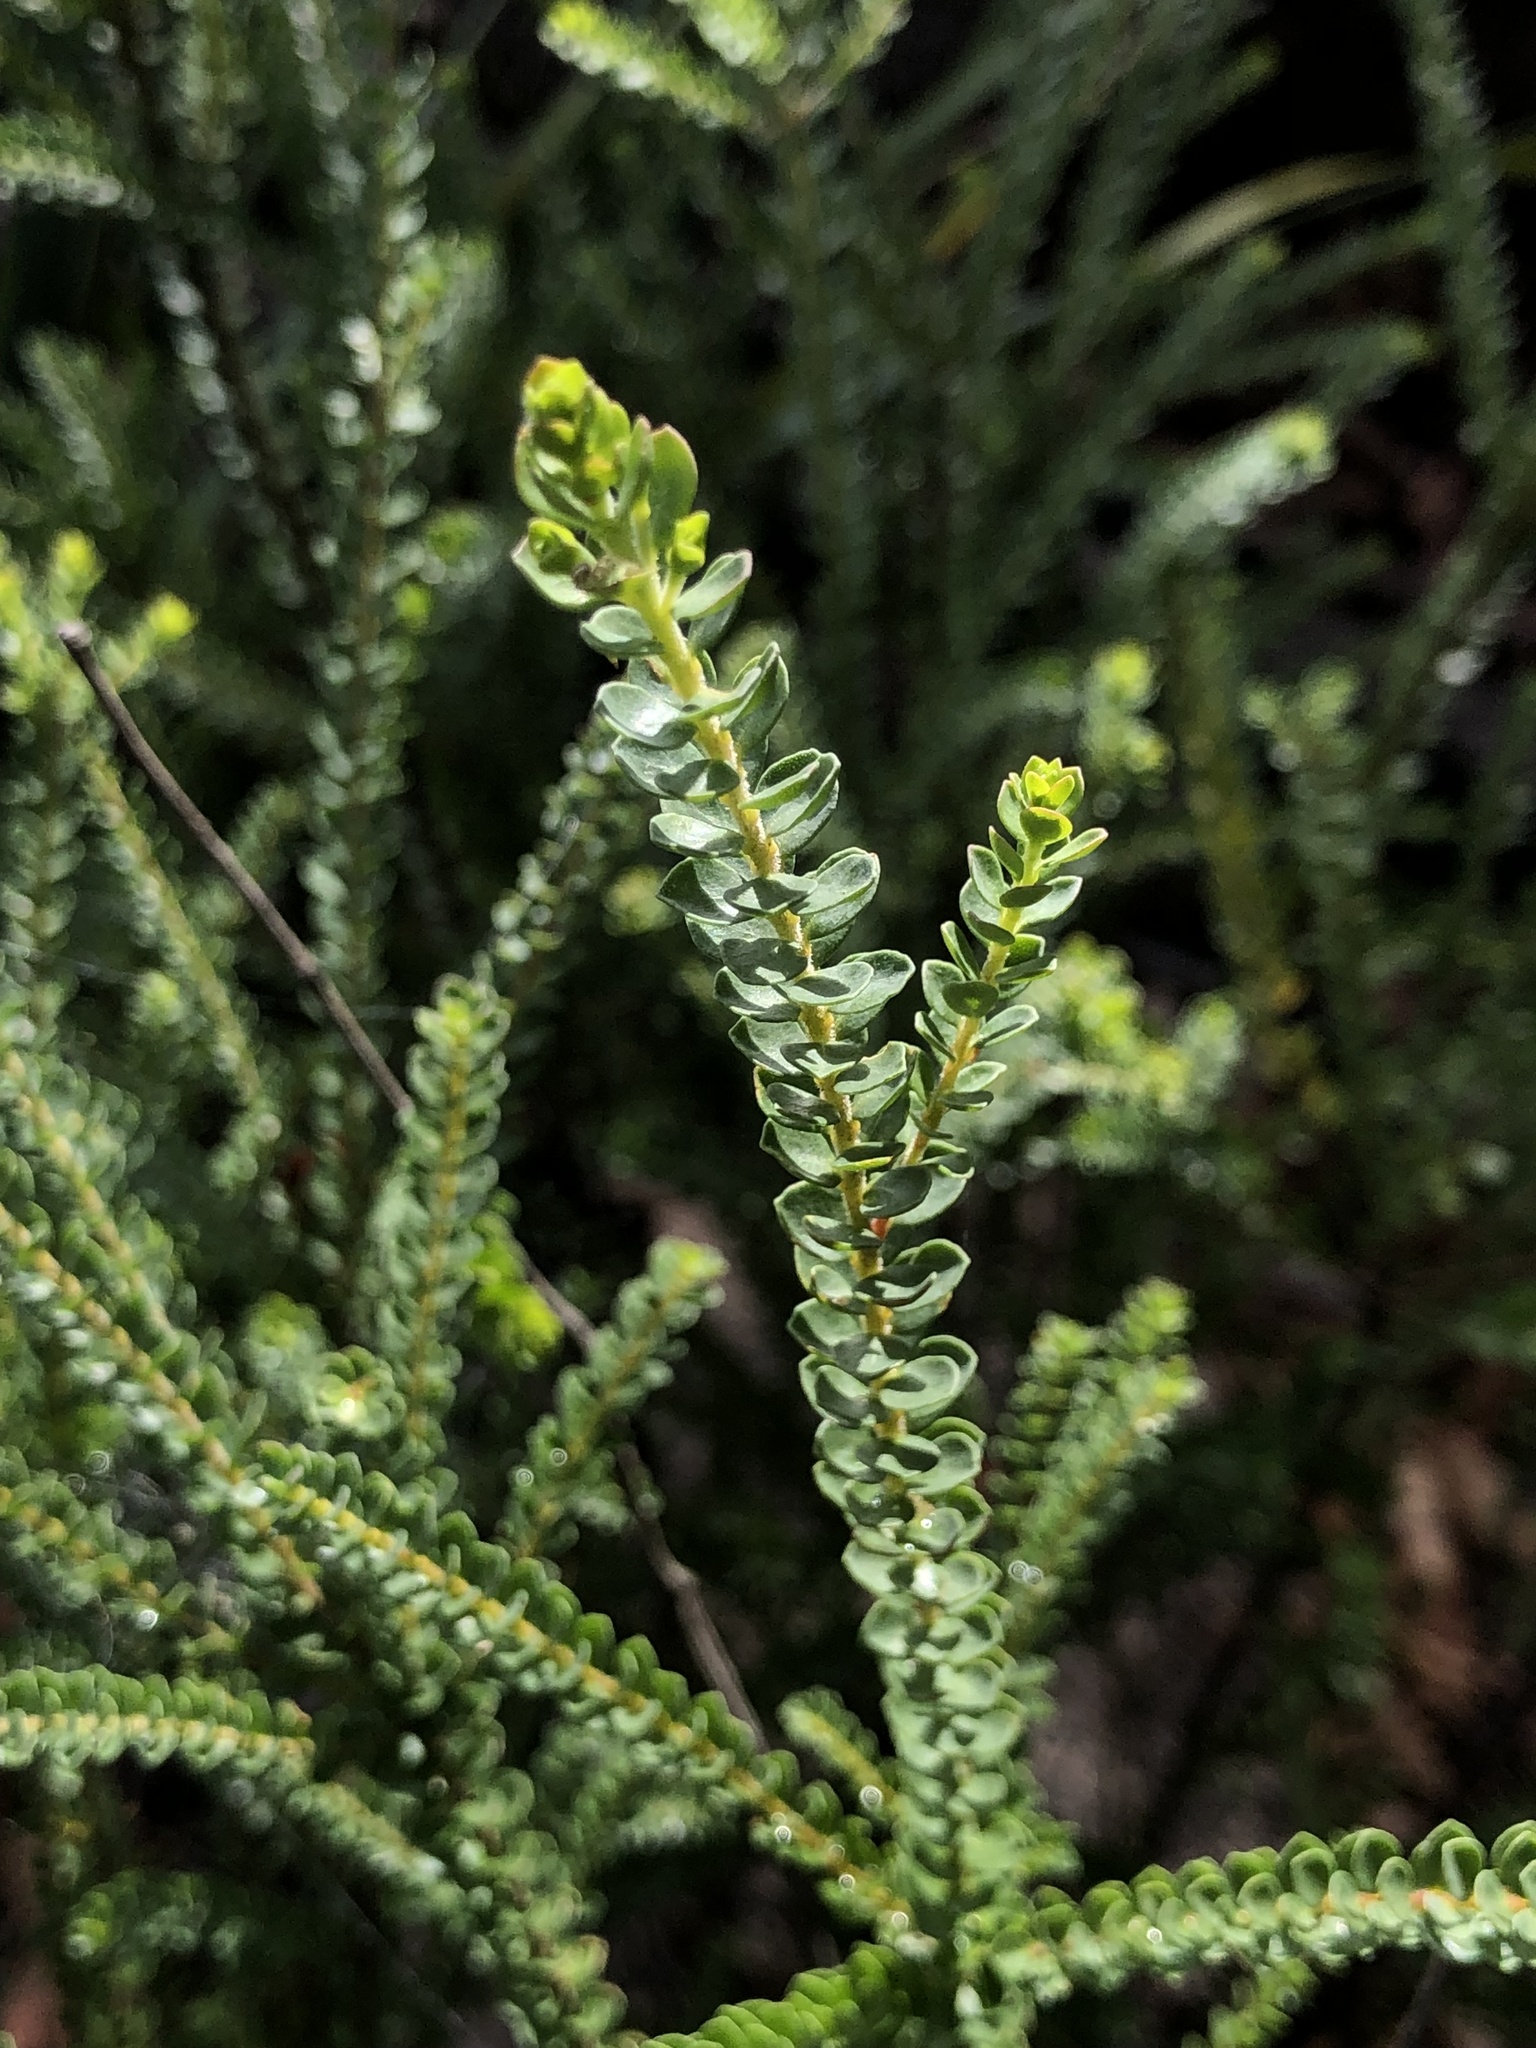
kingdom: Plantae
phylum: Tracheophyta
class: Magnoliopsida
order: Sapindales
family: Rutaceae
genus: Leionema
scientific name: Leionema rotundifolium
